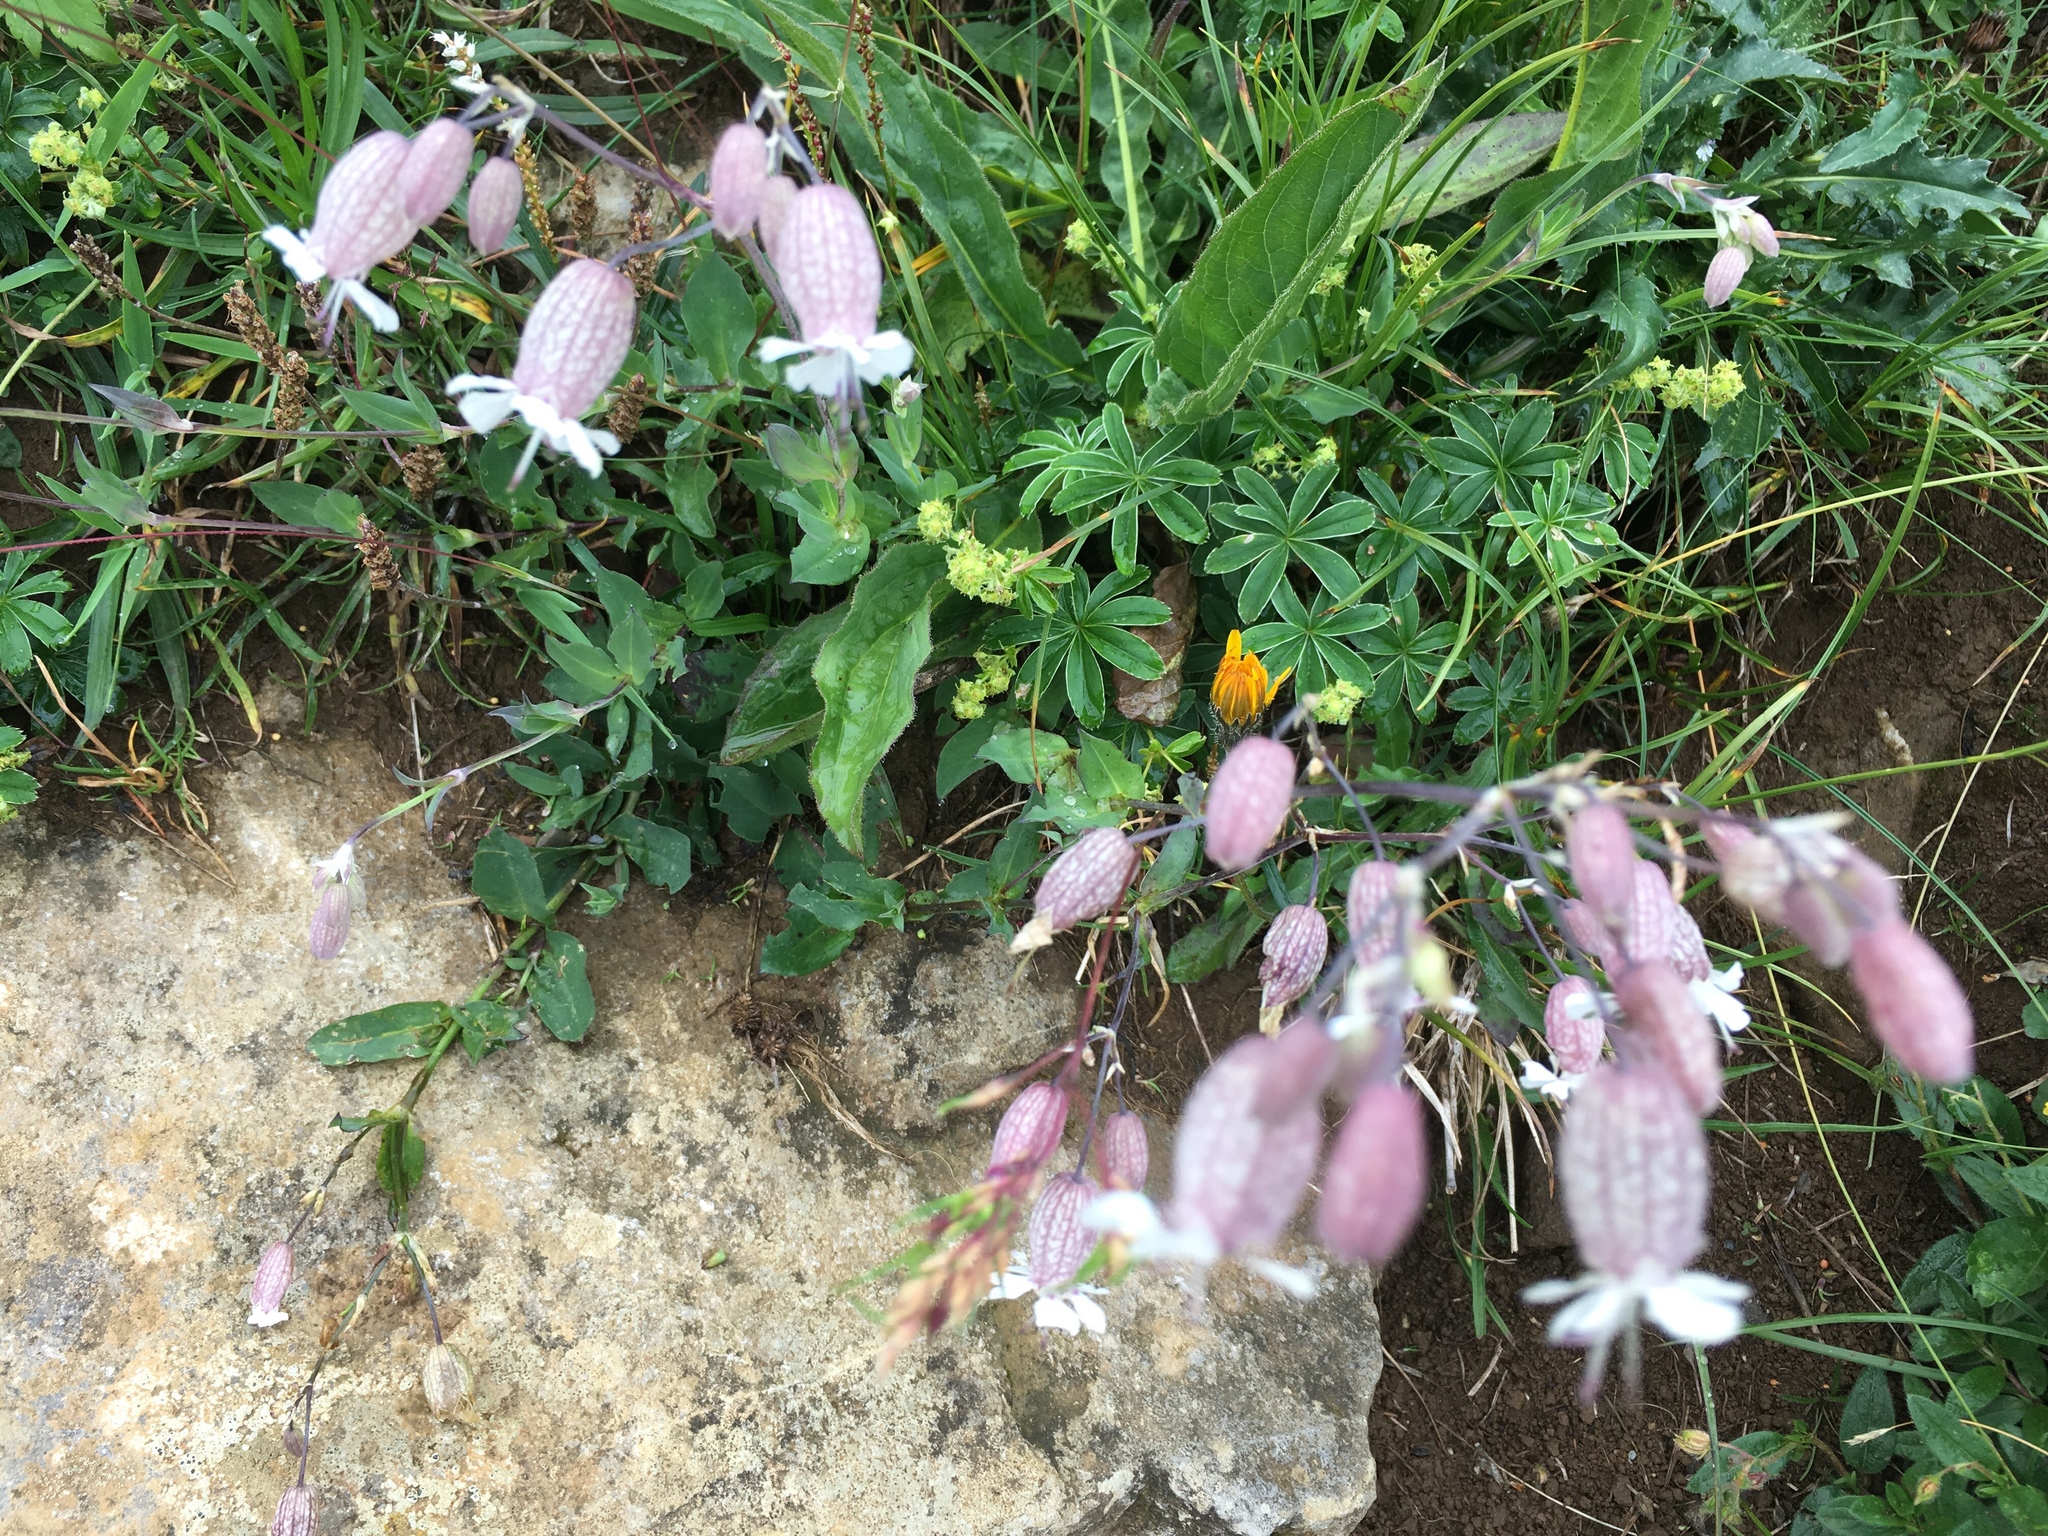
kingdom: Plantae
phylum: Tracheophyta
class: Magnoliopsida
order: Caryophyllales
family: Caryophyllaceae
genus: Silene
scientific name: Silene vulgaris
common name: Bladder campion
